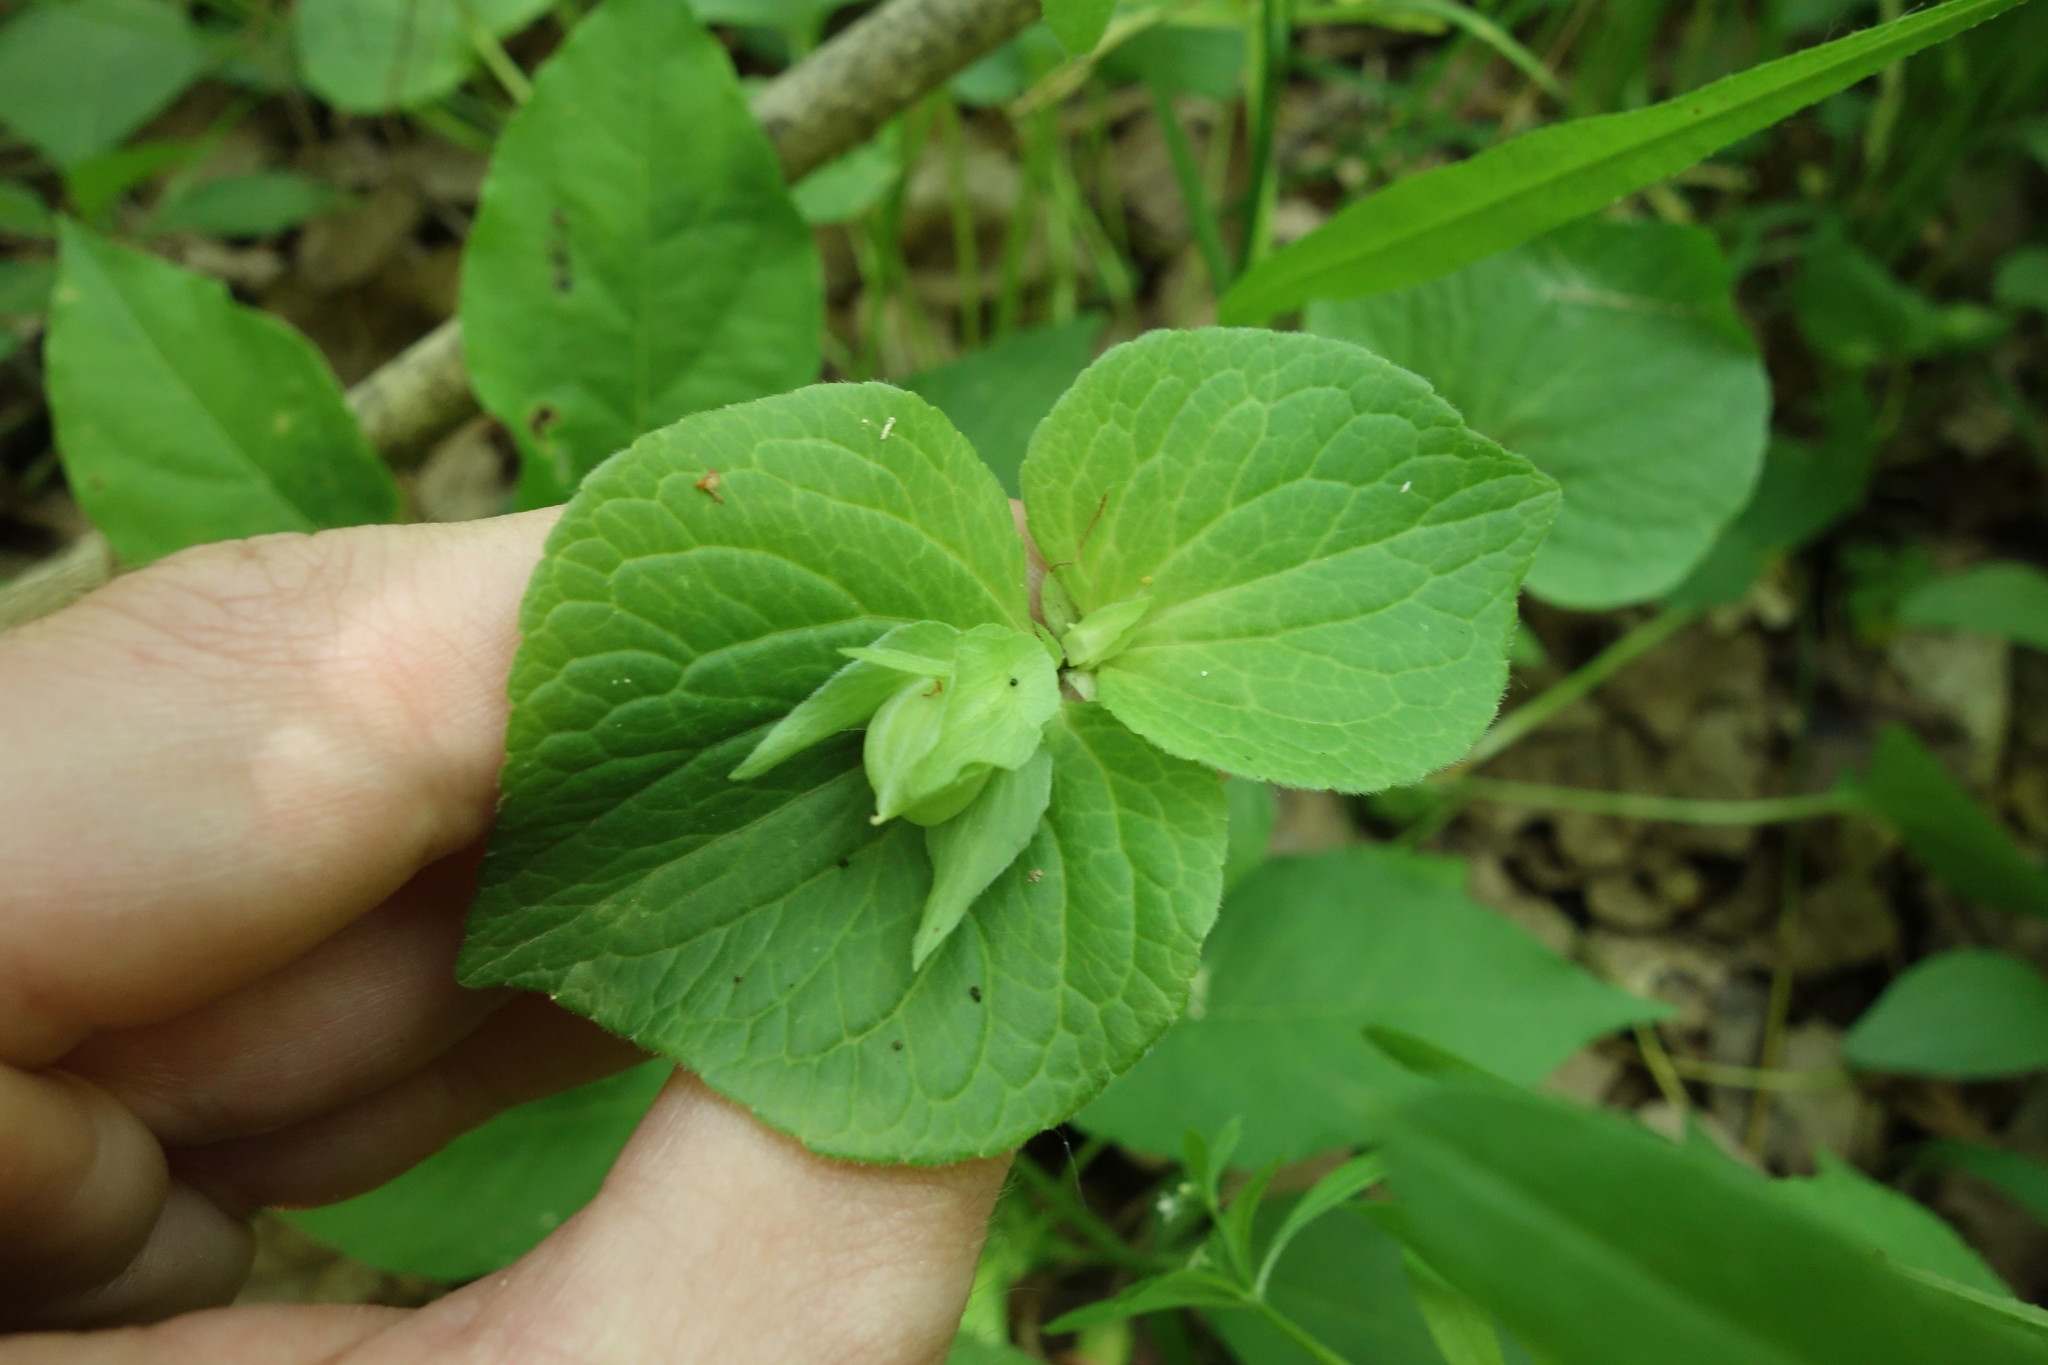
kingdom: Plantae
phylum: Tracheophyta
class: Magnoliopsida
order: Malpighiales
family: Violaceae
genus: Viola
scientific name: Viola mirabilis
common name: Wonder violet
